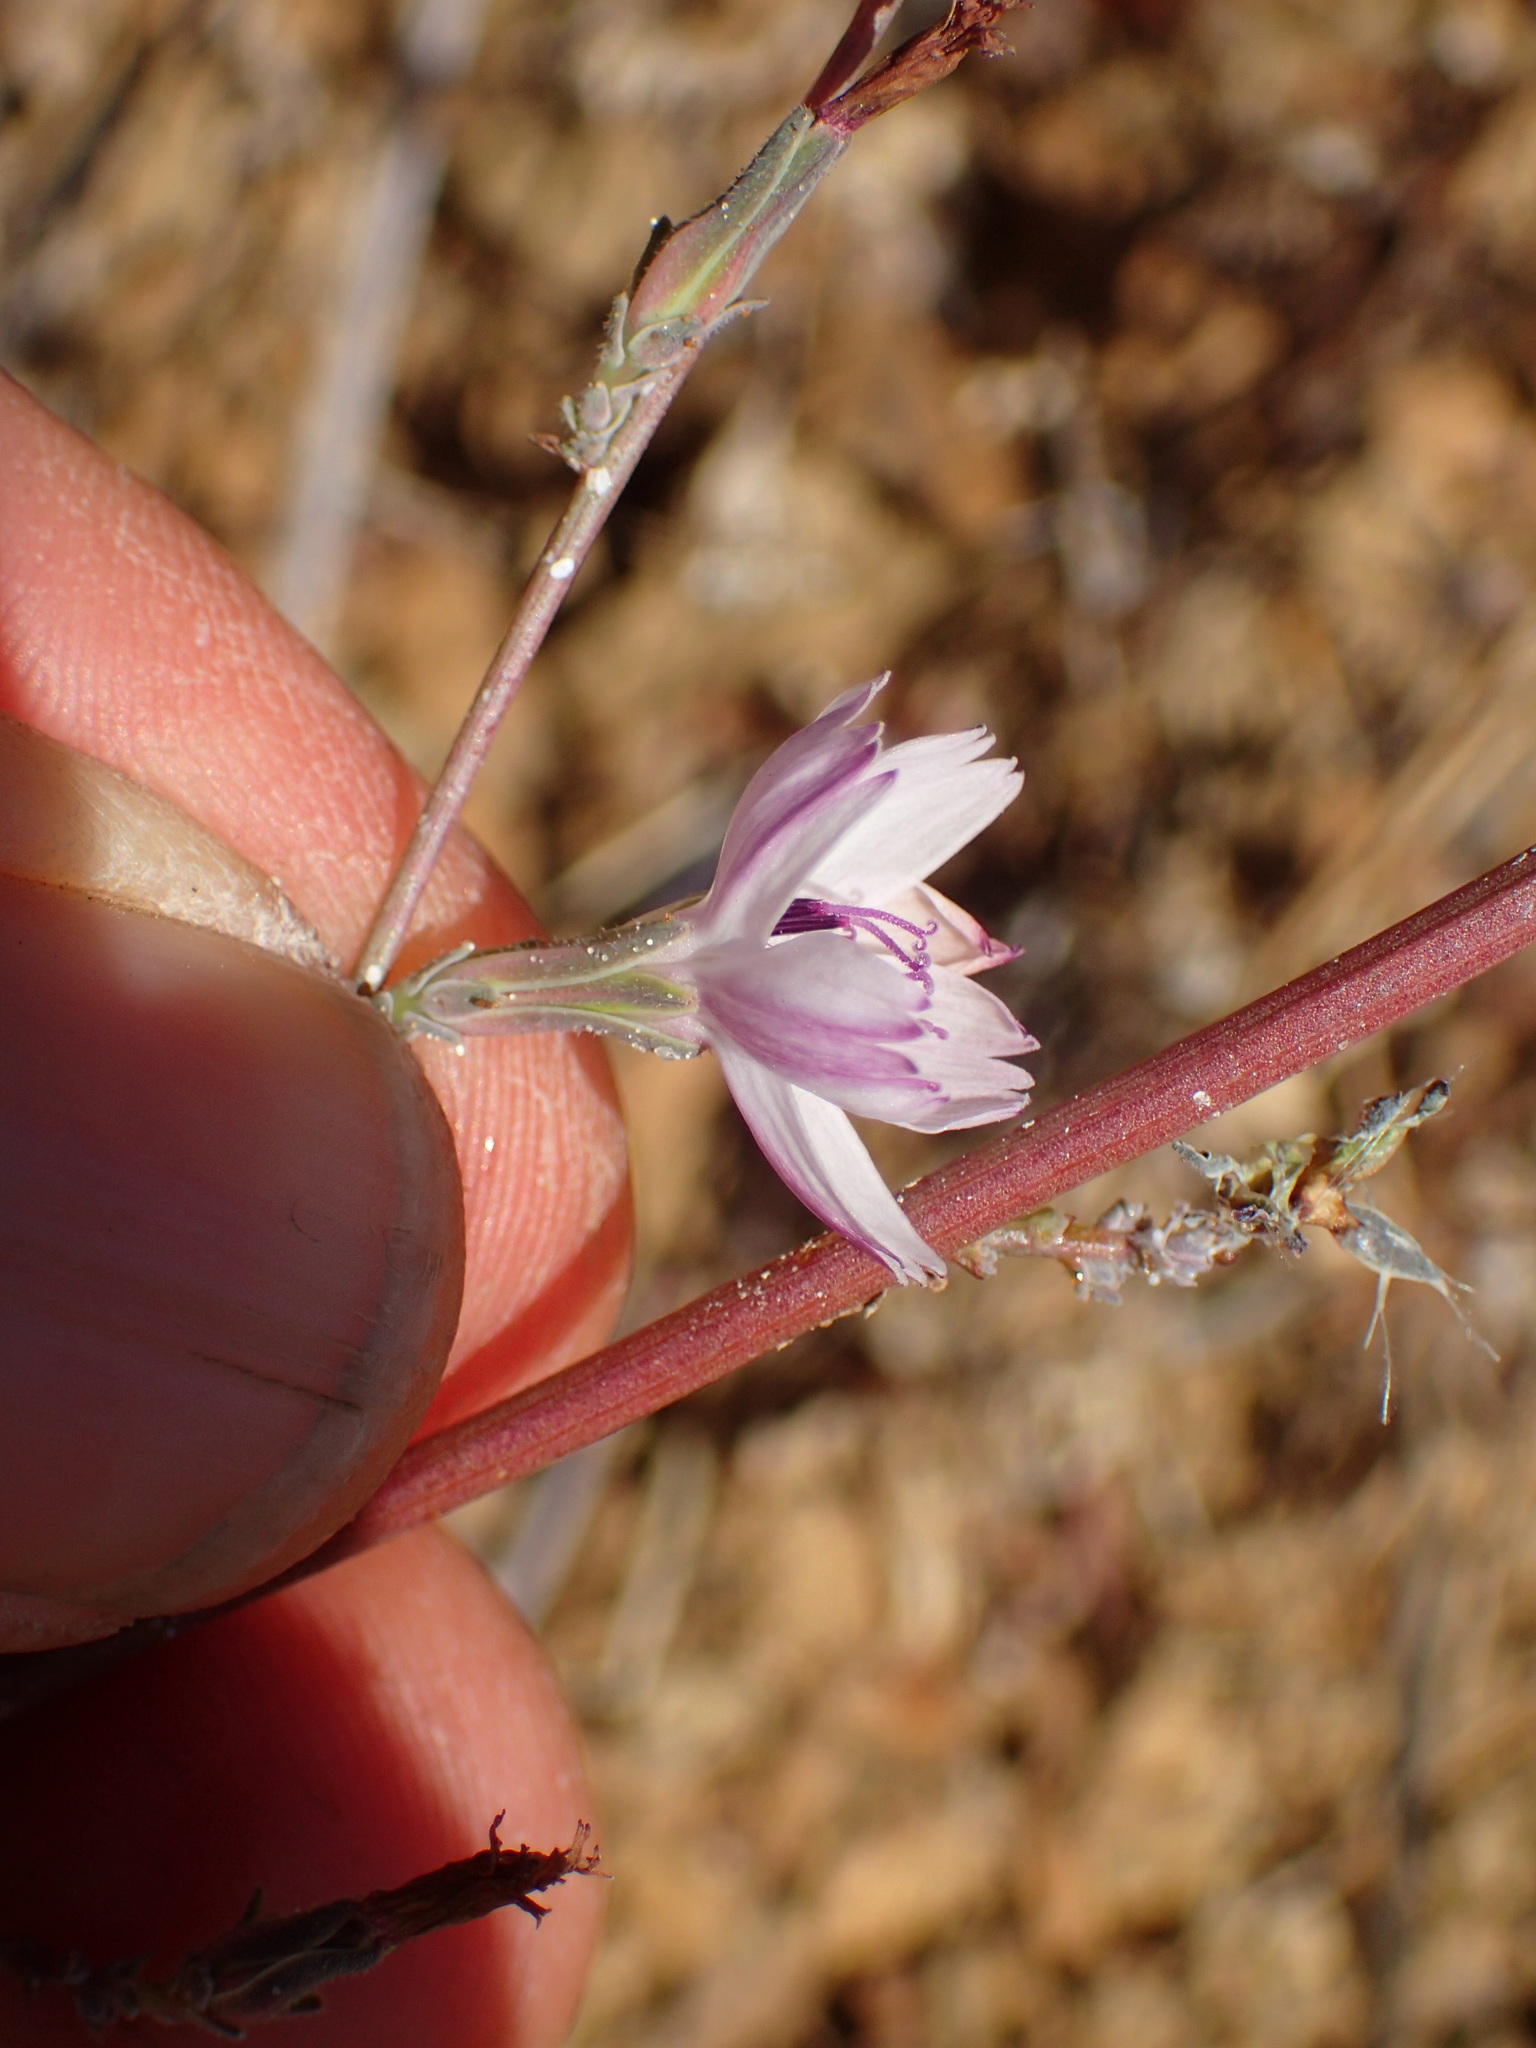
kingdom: Plantae
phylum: Tracheophyta
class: Magnoliopsida
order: Asterales
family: Asteraceae
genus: Stephanomeria
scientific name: Stephanomeria virgata
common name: Virgate wirelettuce
